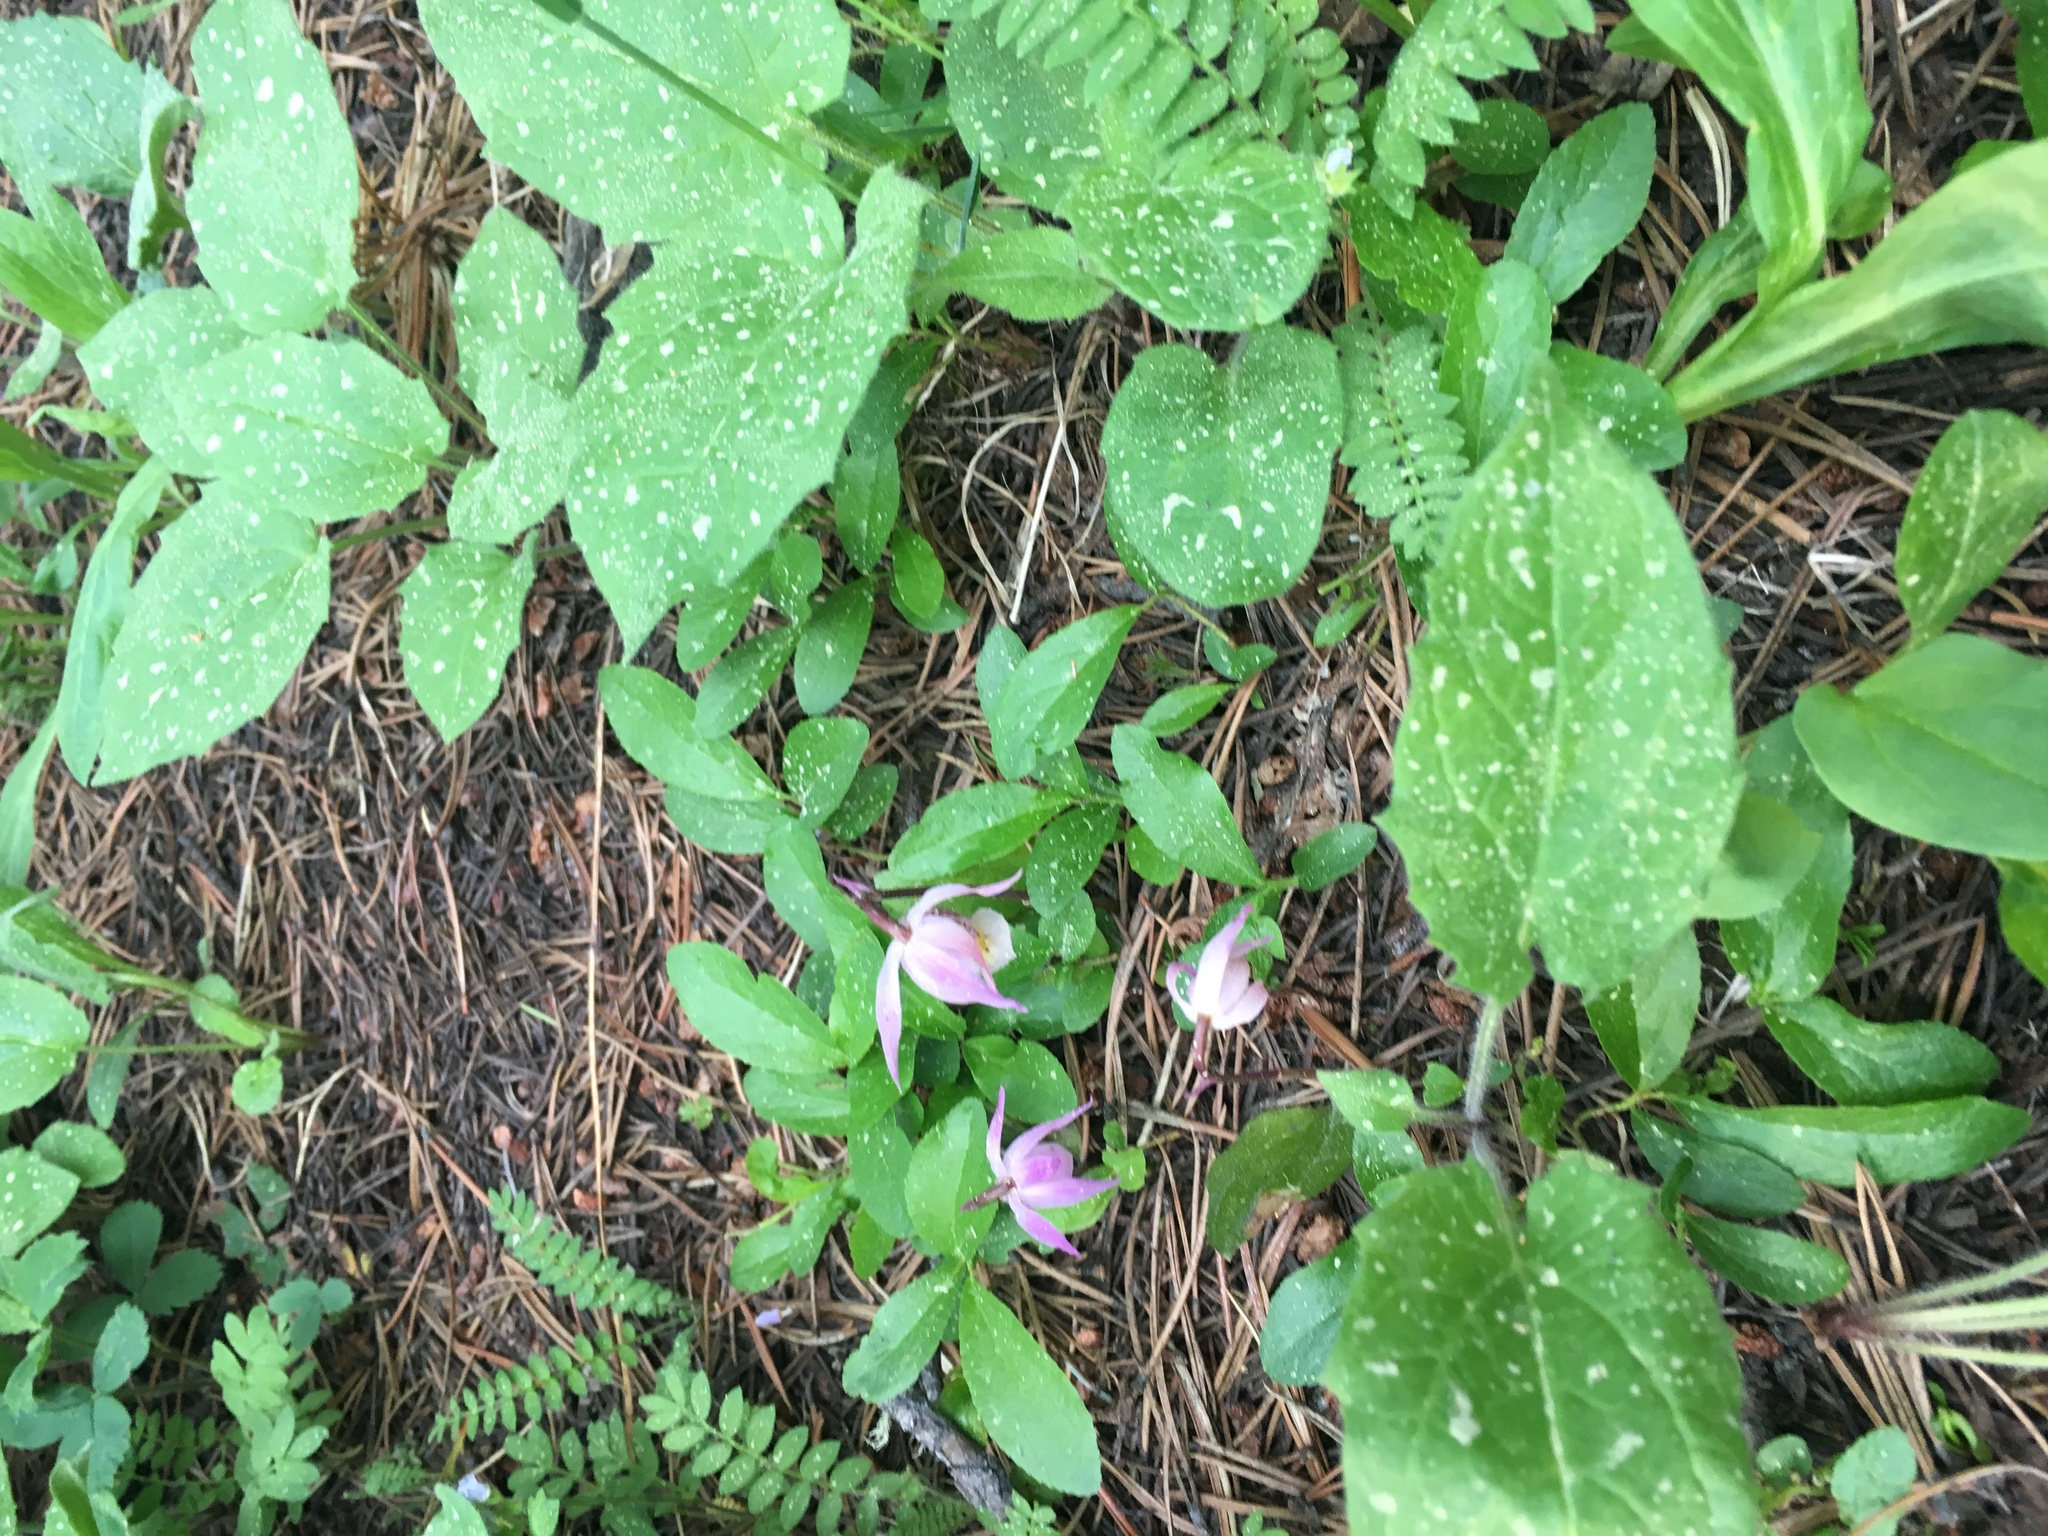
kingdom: Plantae
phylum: Tracheophyta
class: Liliopsida
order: Asparagales
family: Orchidaceae
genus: Calypso
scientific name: Calypso bulbosa
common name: Calypso
